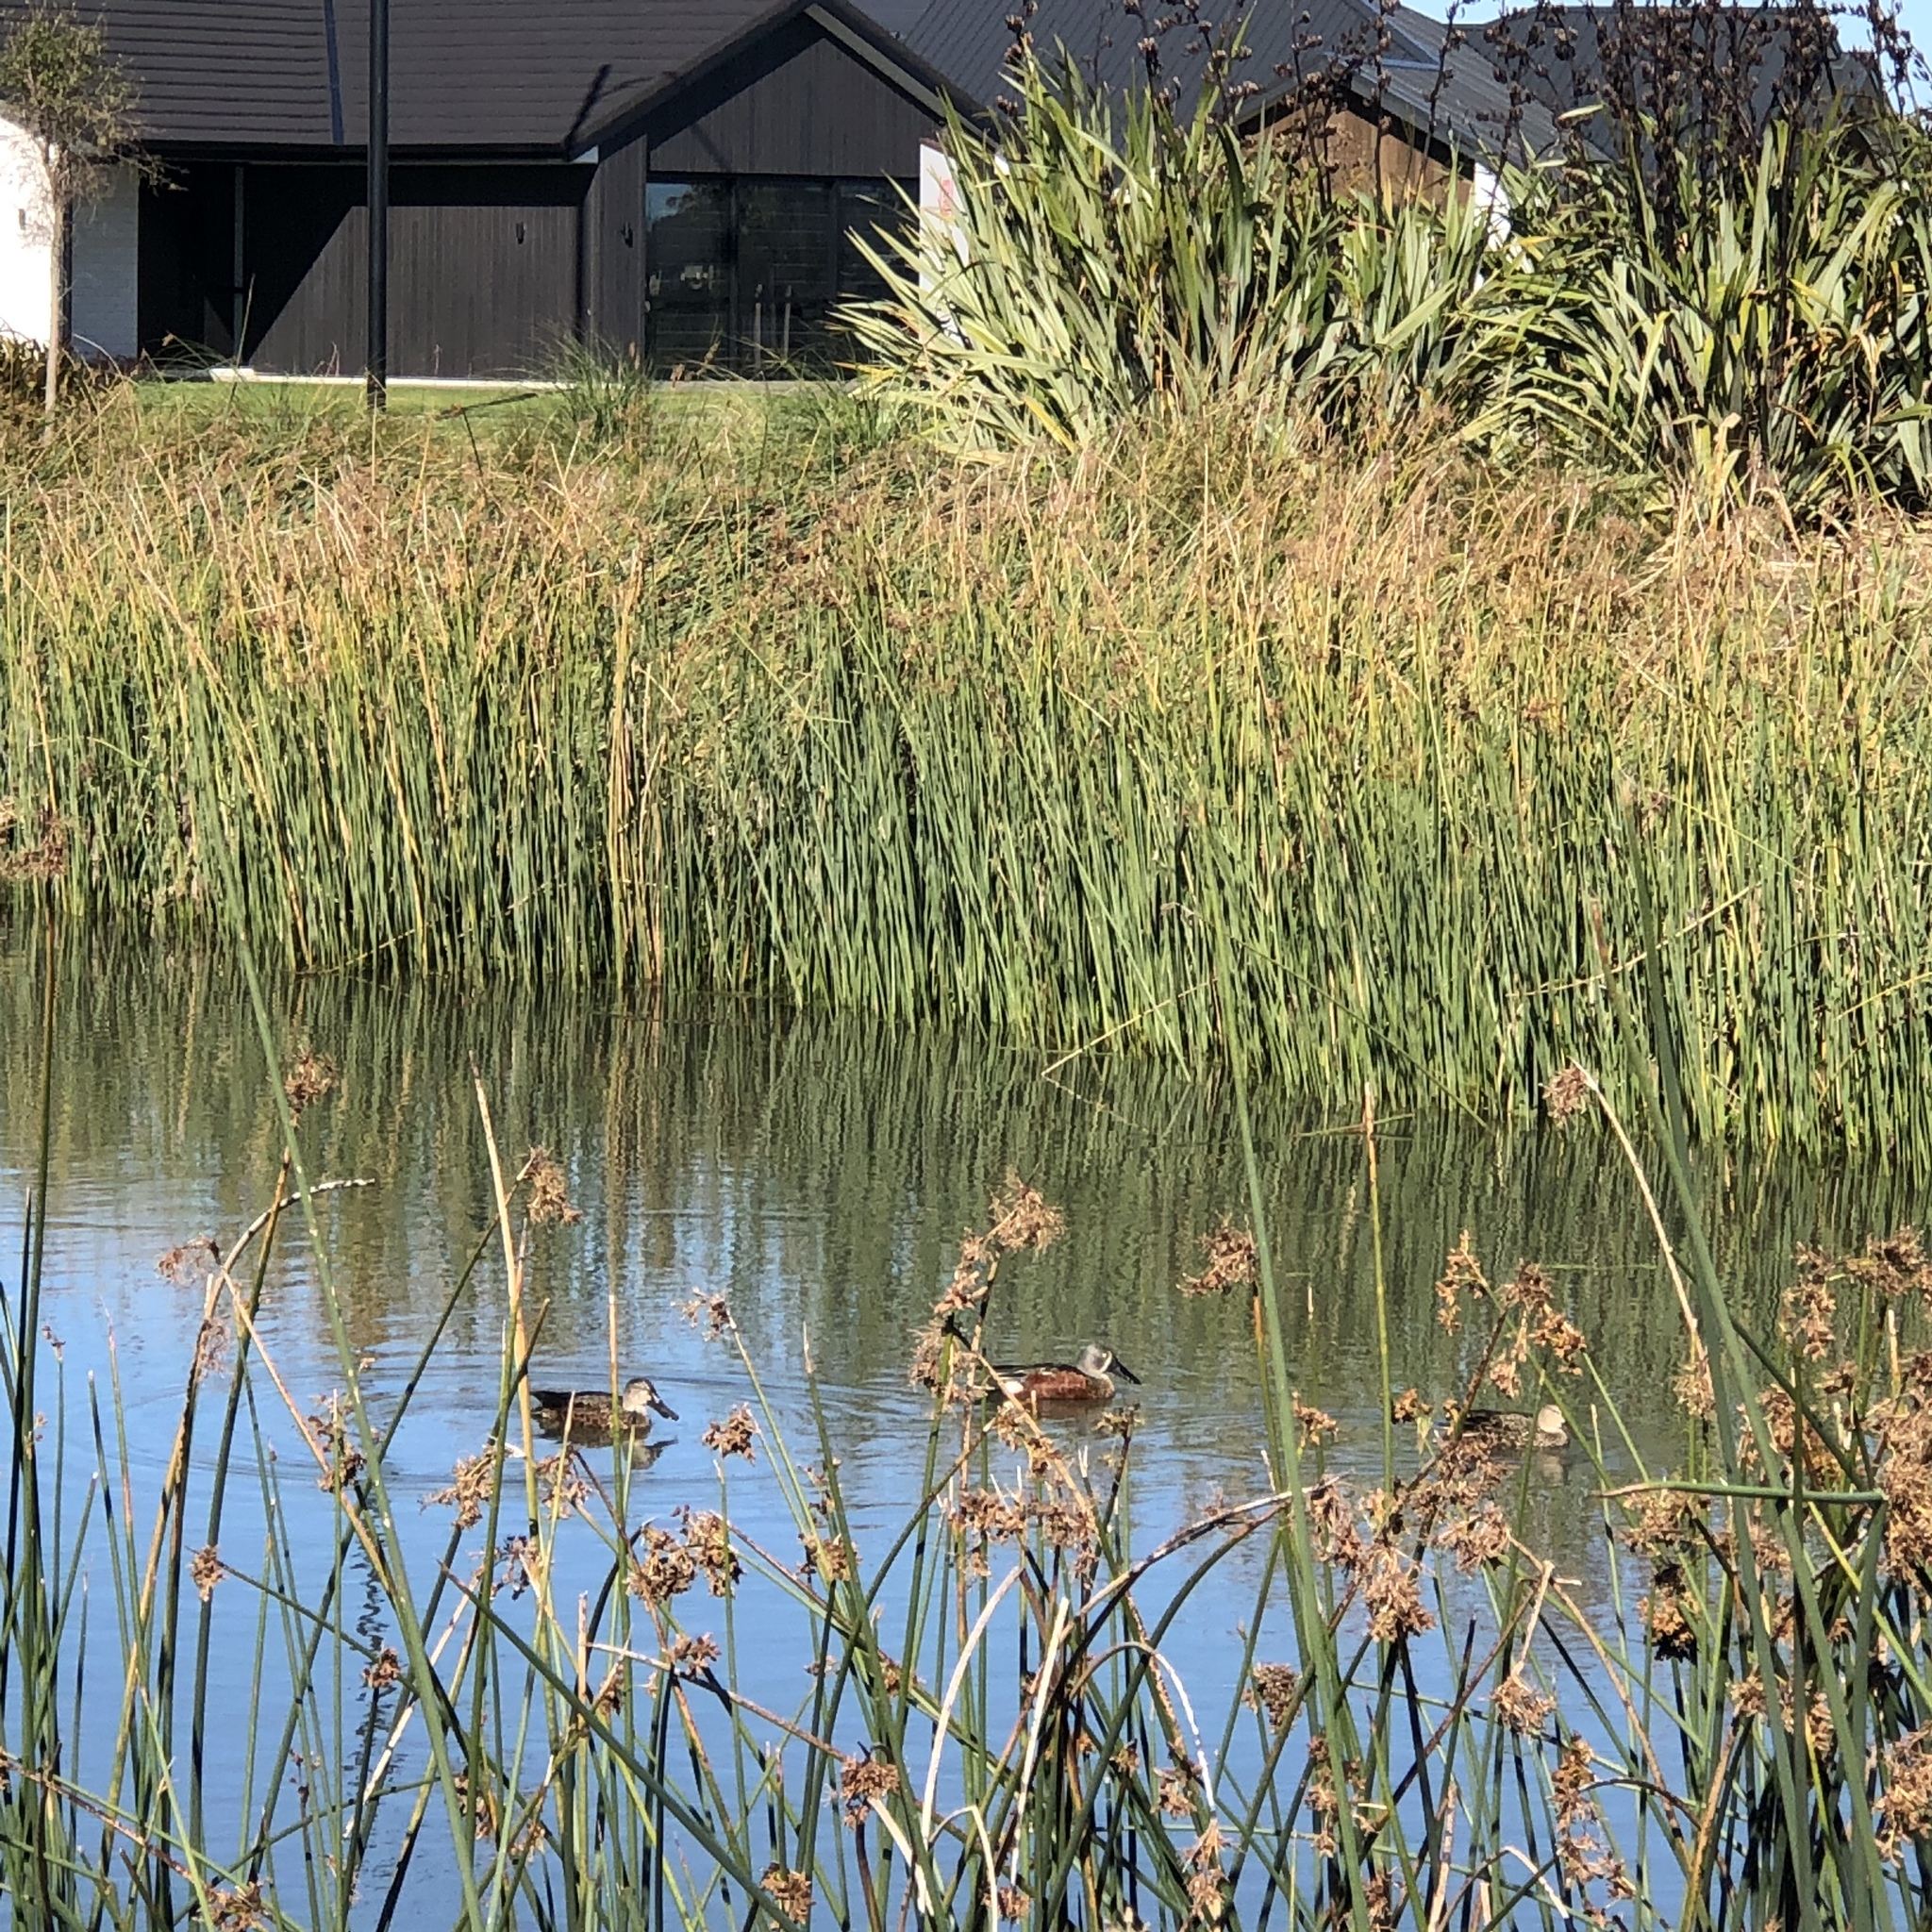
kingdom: Animalia
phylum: Chordata
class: Aves
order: Anseriformes
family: Anatidae
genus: Spatula
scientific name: Spatula rhynchotis
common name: Australian shoveler
